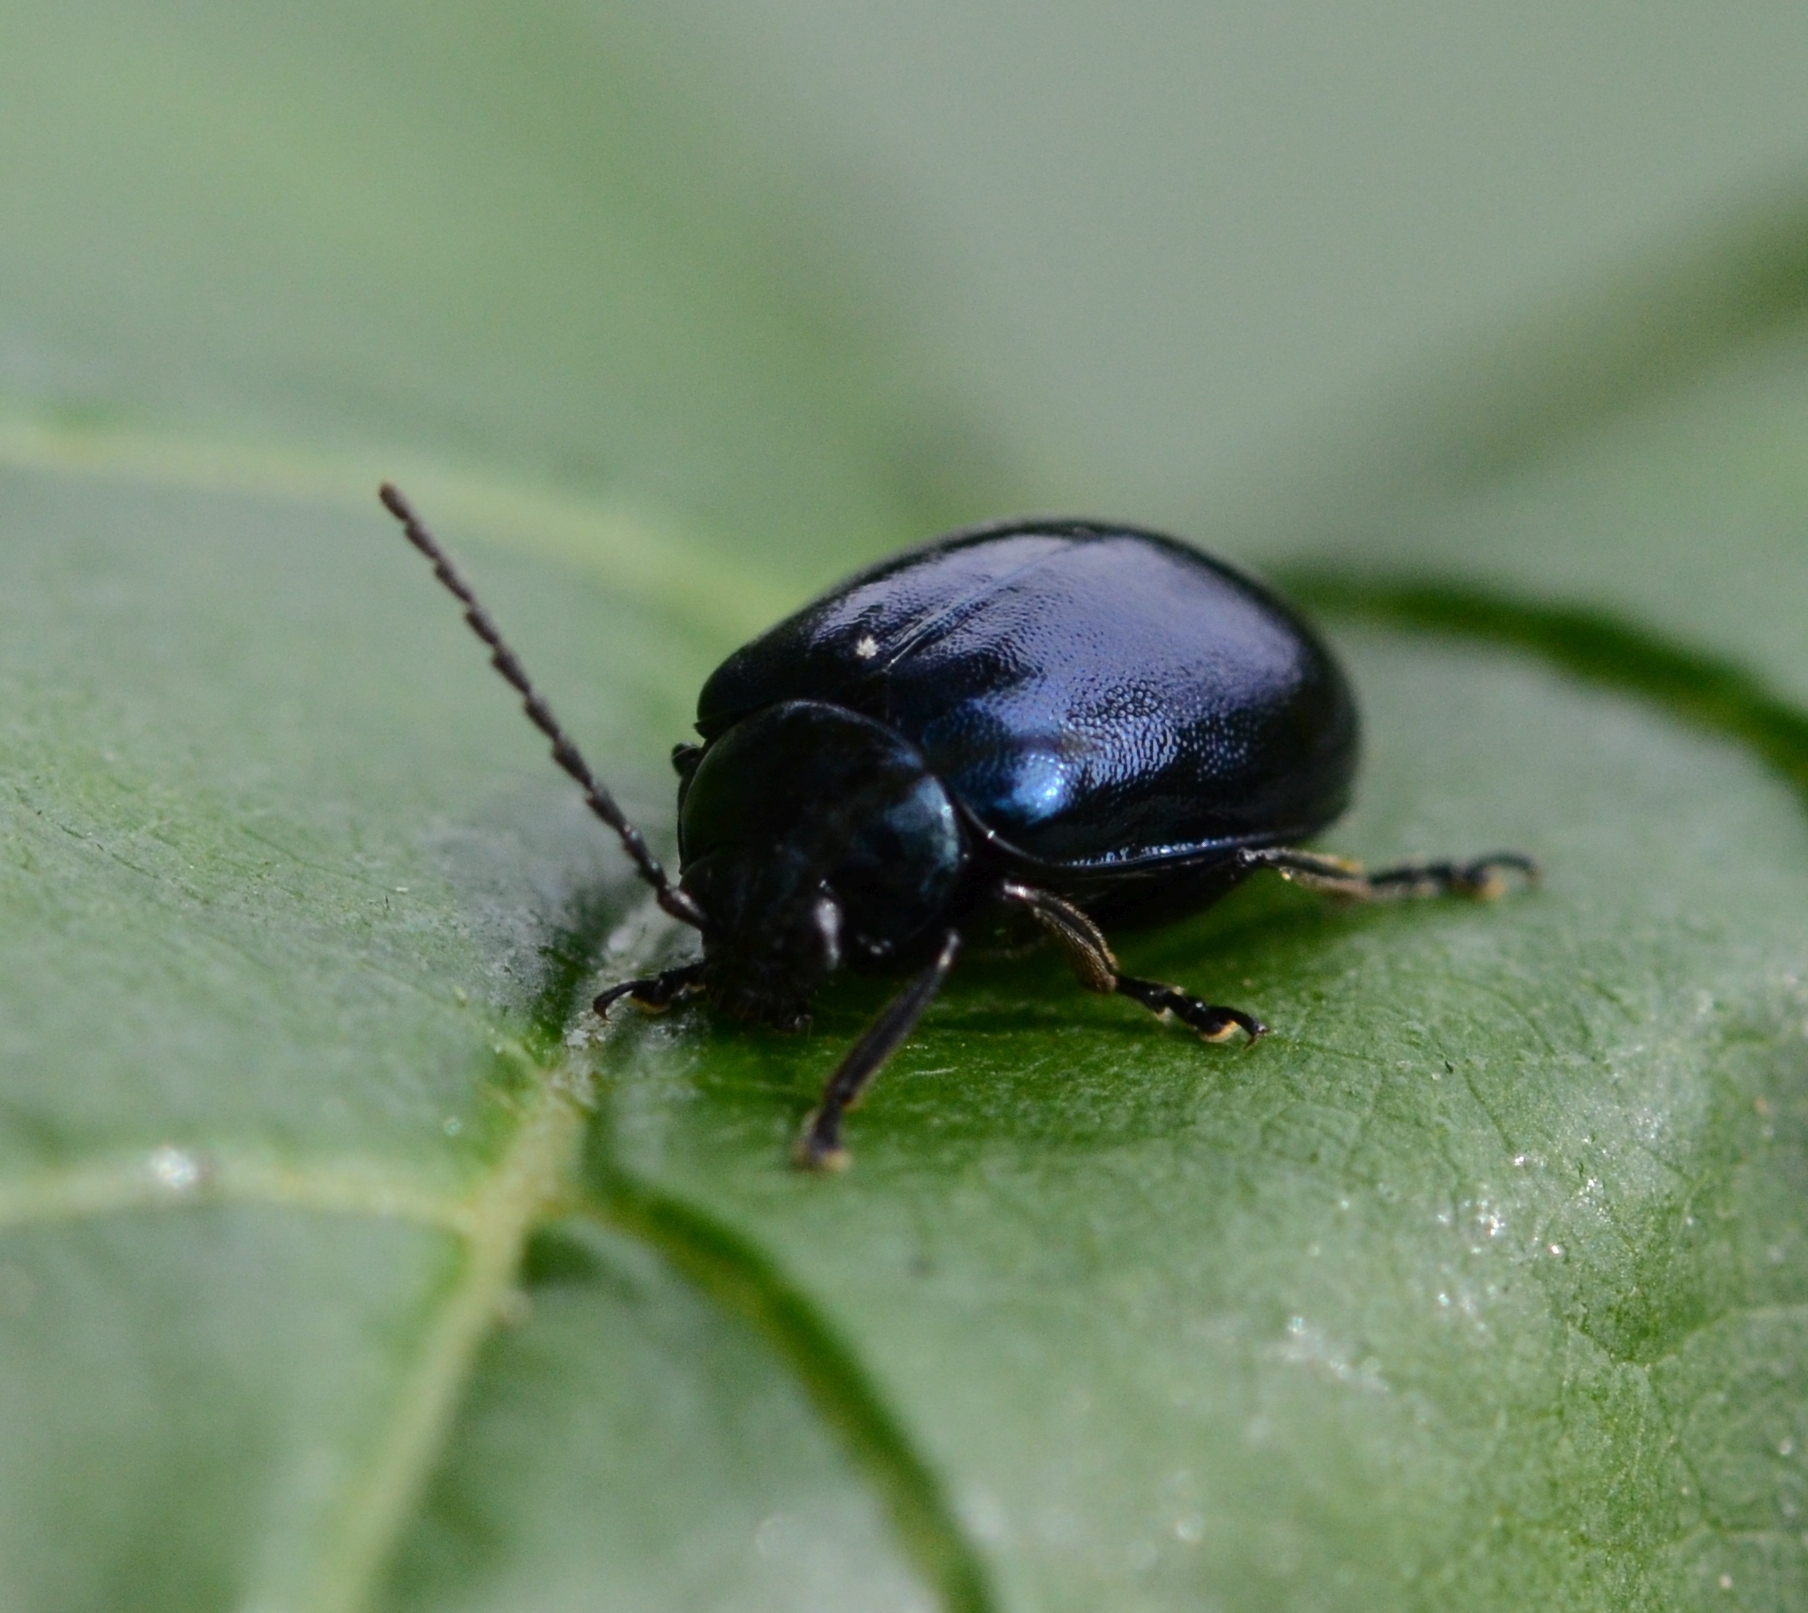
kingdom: Animalia
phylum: Arthropoda
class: Insecta
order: Coleoptera
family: Chrysomelidae
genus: Agelastica
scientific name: Agelastica alni
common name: Alder leaf beetle
